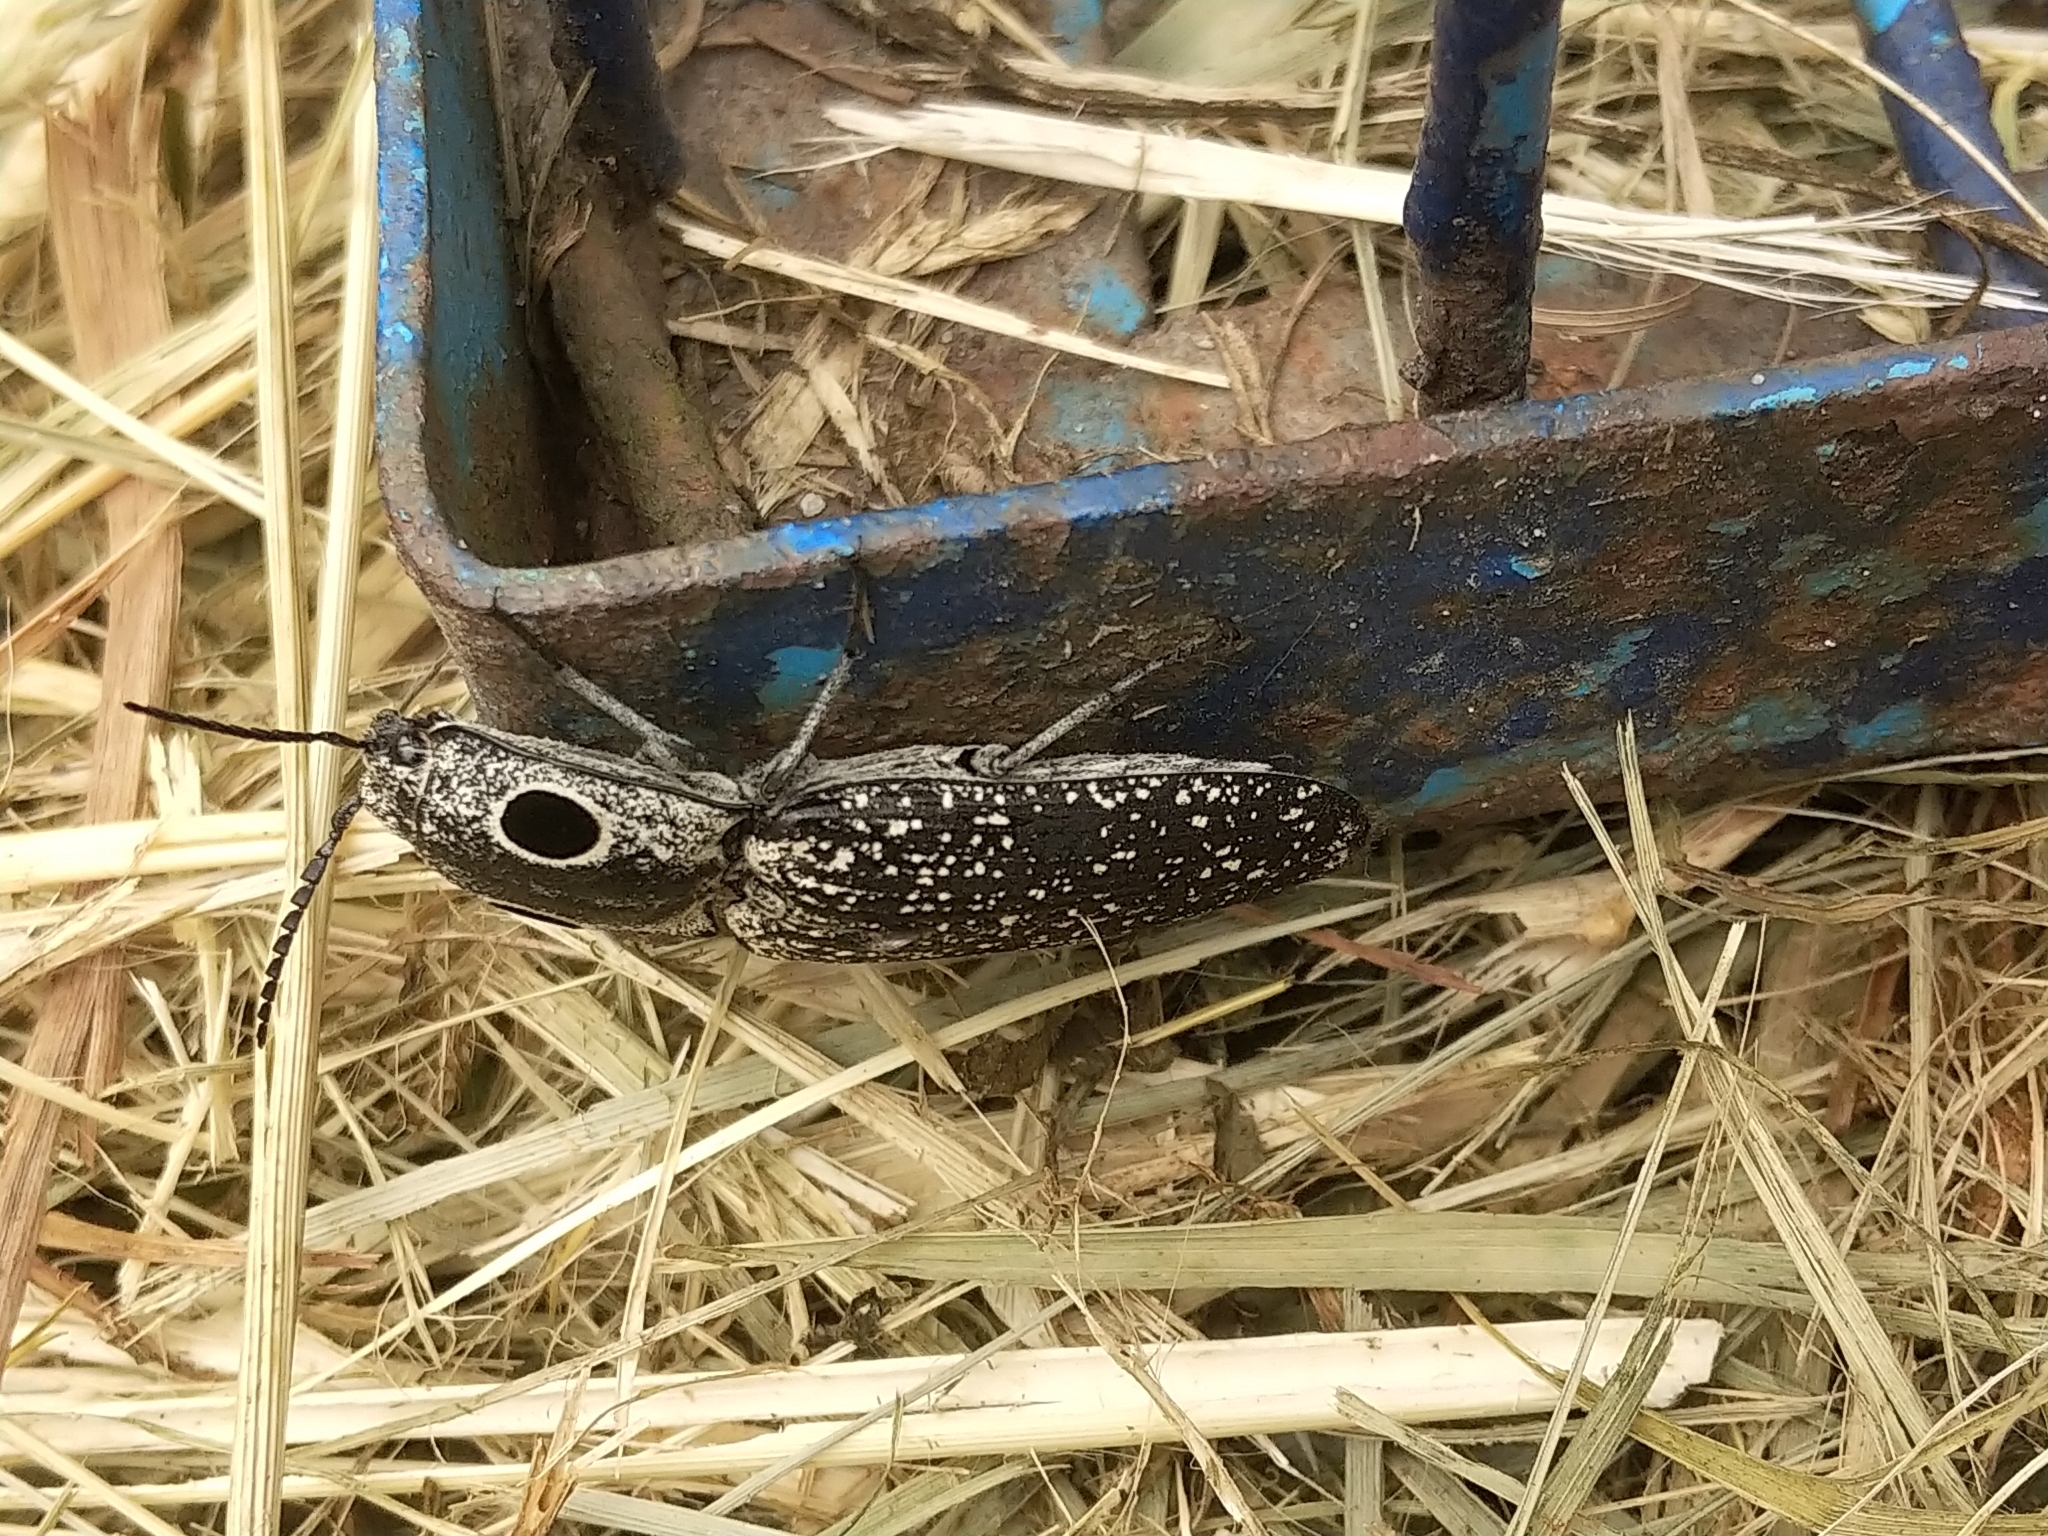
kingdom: Animalia
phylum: Arthropoda
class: Insecta
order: Coleoptera
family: Elateridae
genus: Alaus
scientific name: Alaus oculatus
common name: Eastern eyed click beetle
